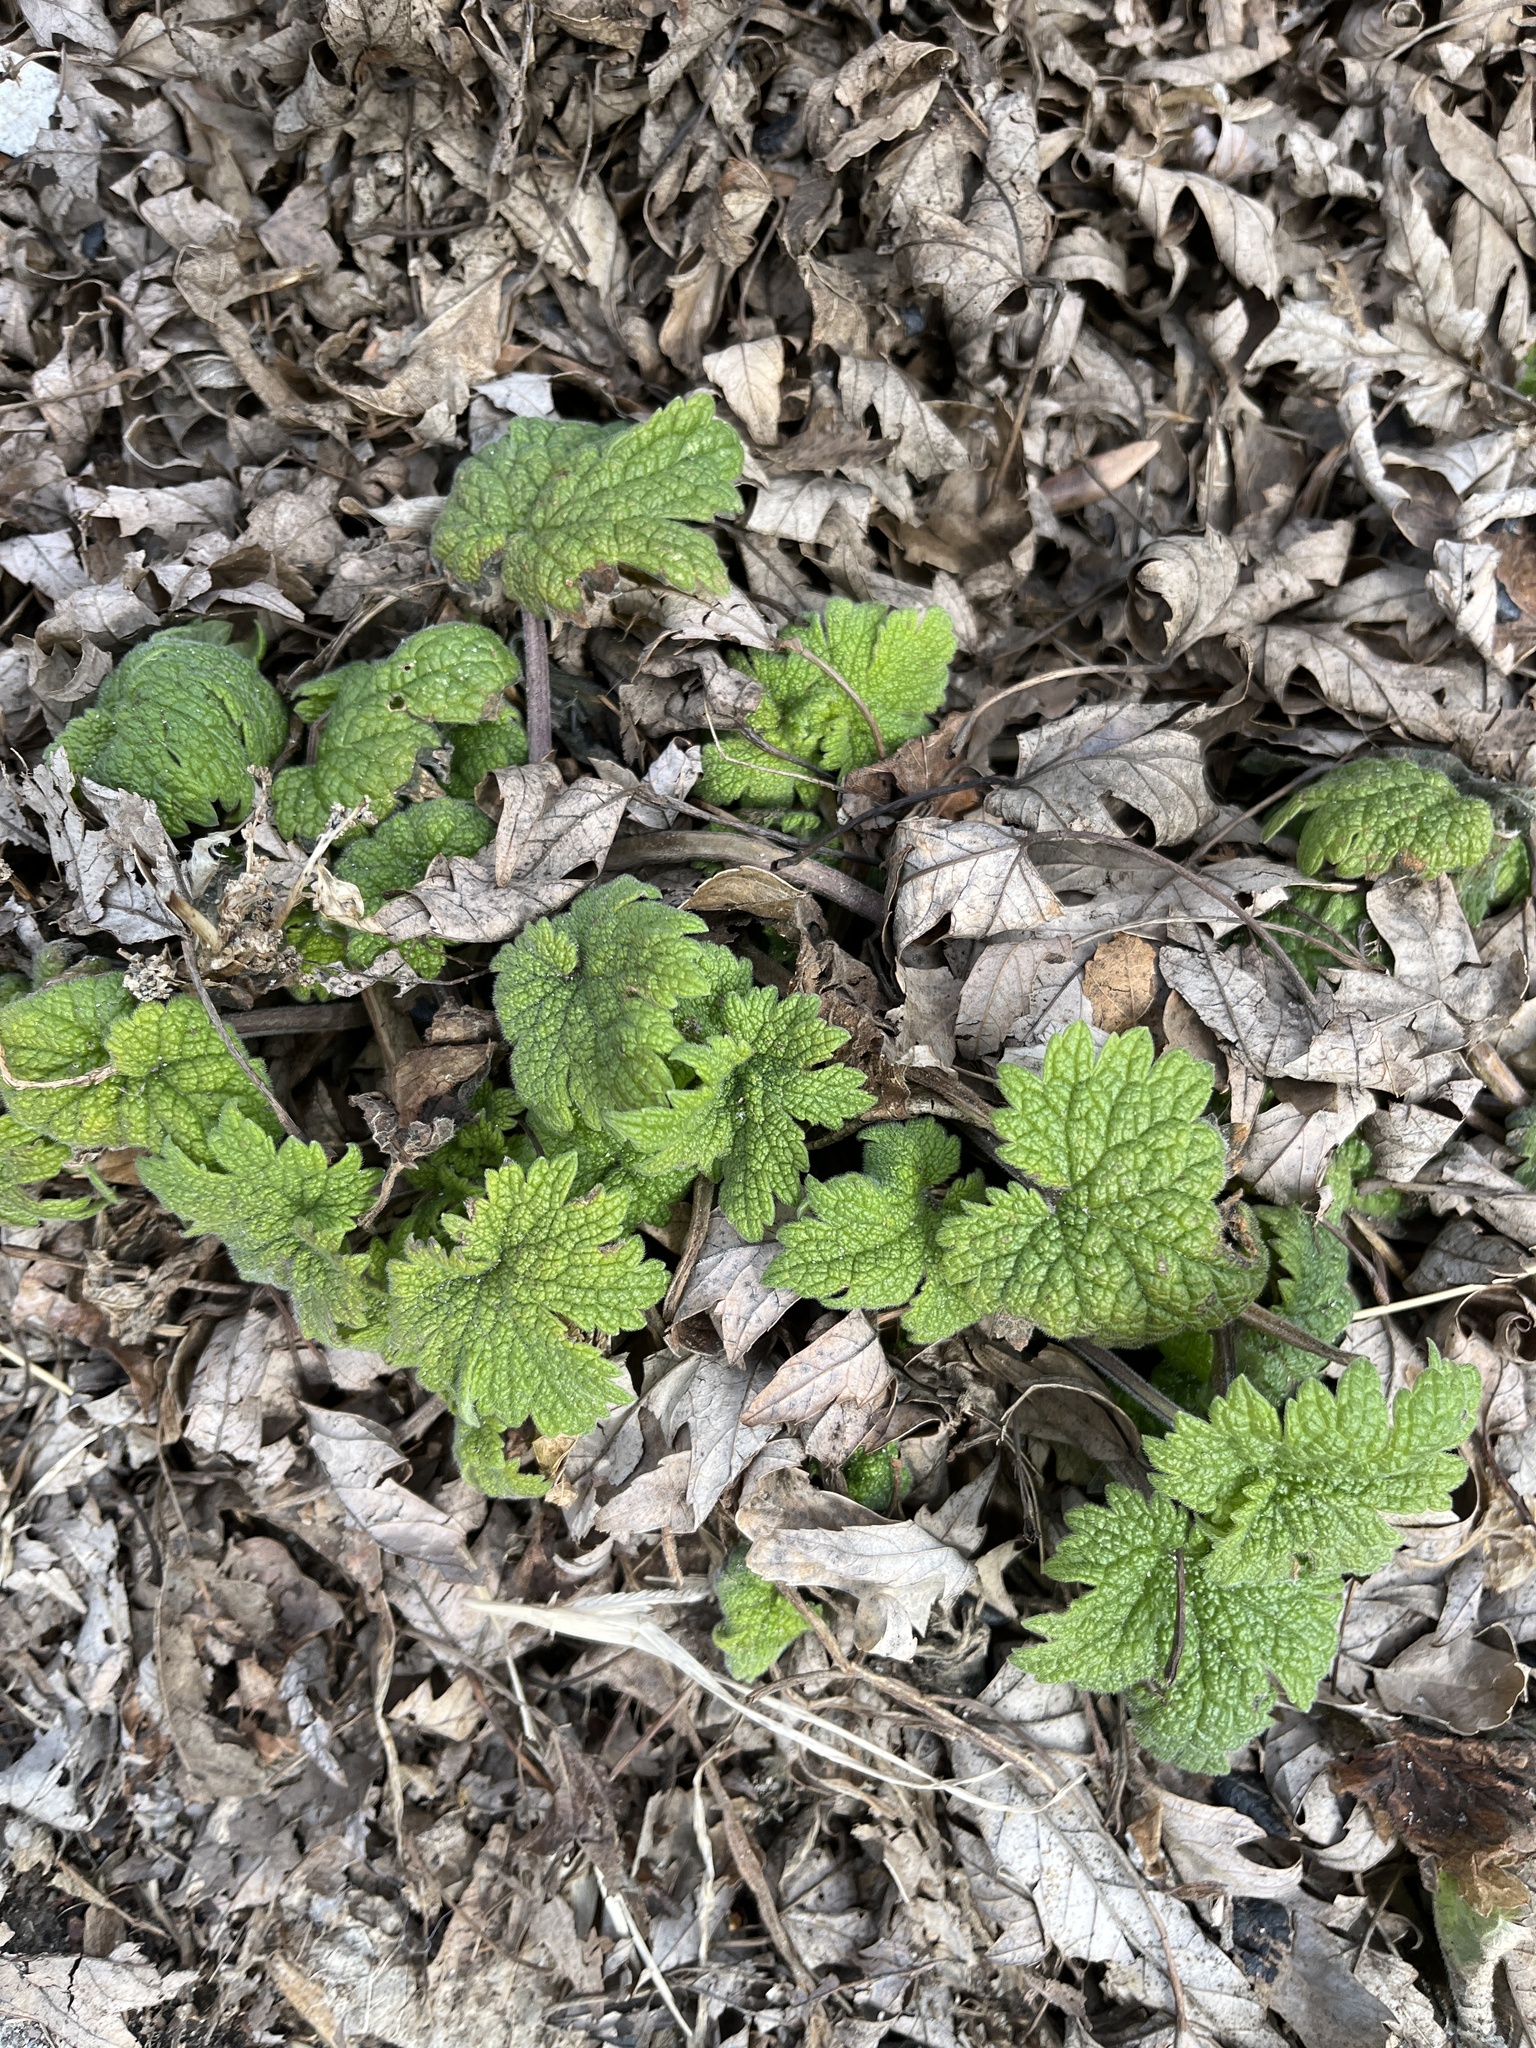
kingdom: Plantae
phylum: Tracheophyta
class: Magnoliopsida
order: Lamiales
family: Lamiaceae
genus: Leonurus
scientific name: Leonurus cardiaca
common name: Motherwort
